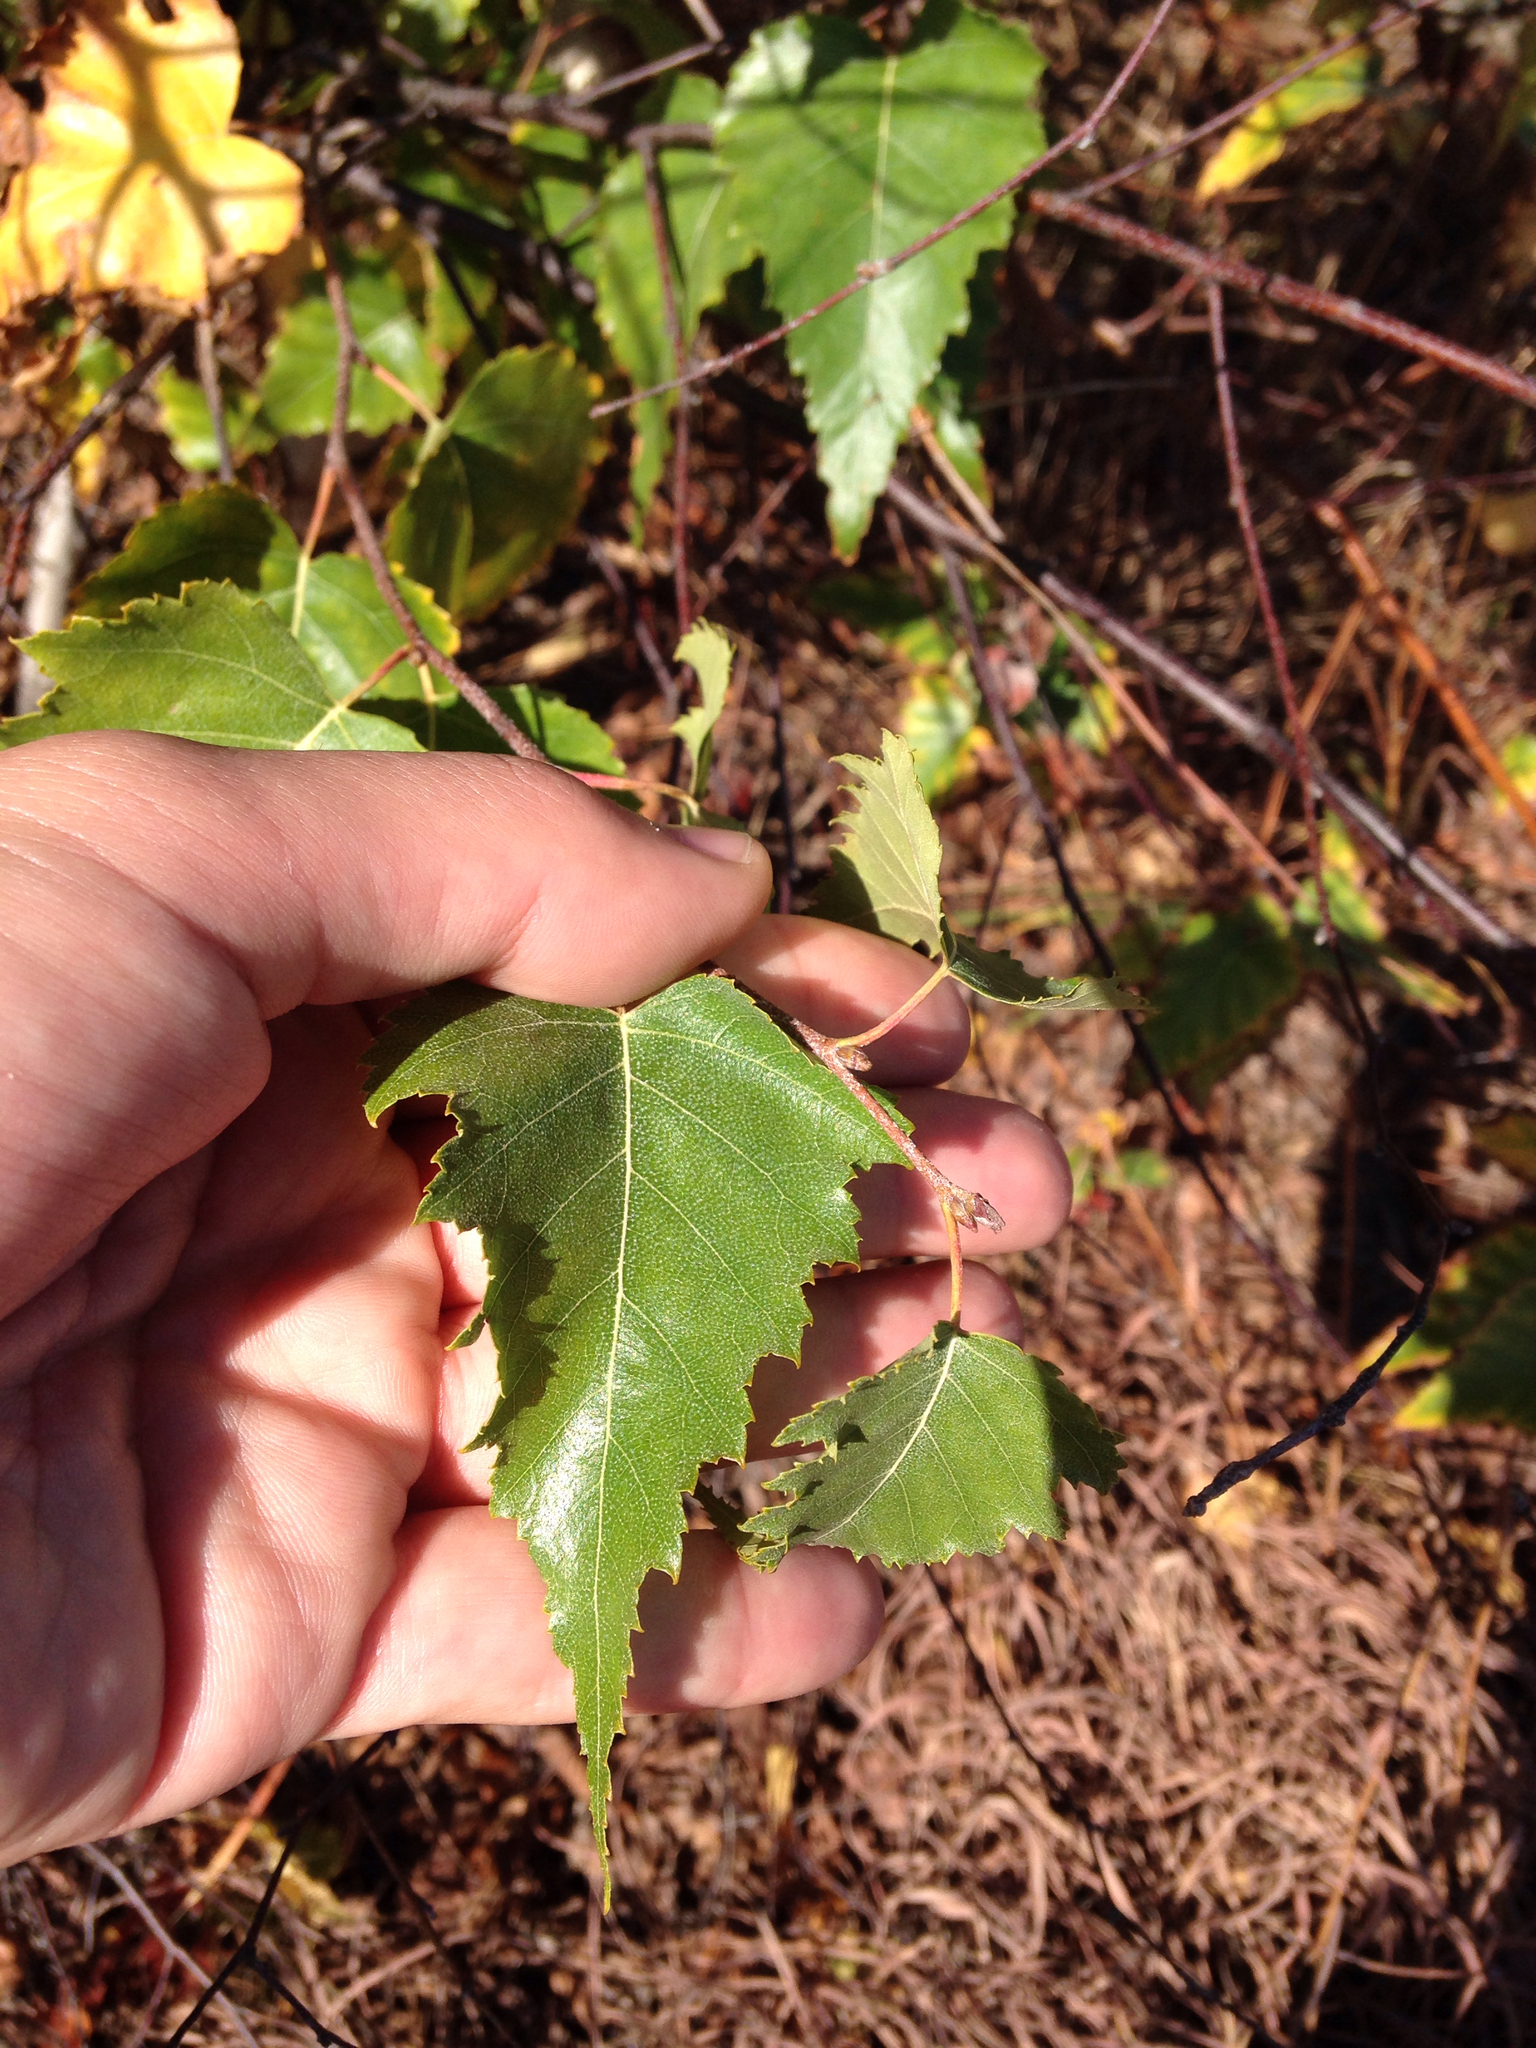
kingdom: Plantae
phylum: Tracheophyta
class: Magnoliopsida
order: Fagales
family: Betulaceae
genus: Betula
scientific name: Betula populifolia
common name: Fire birch
